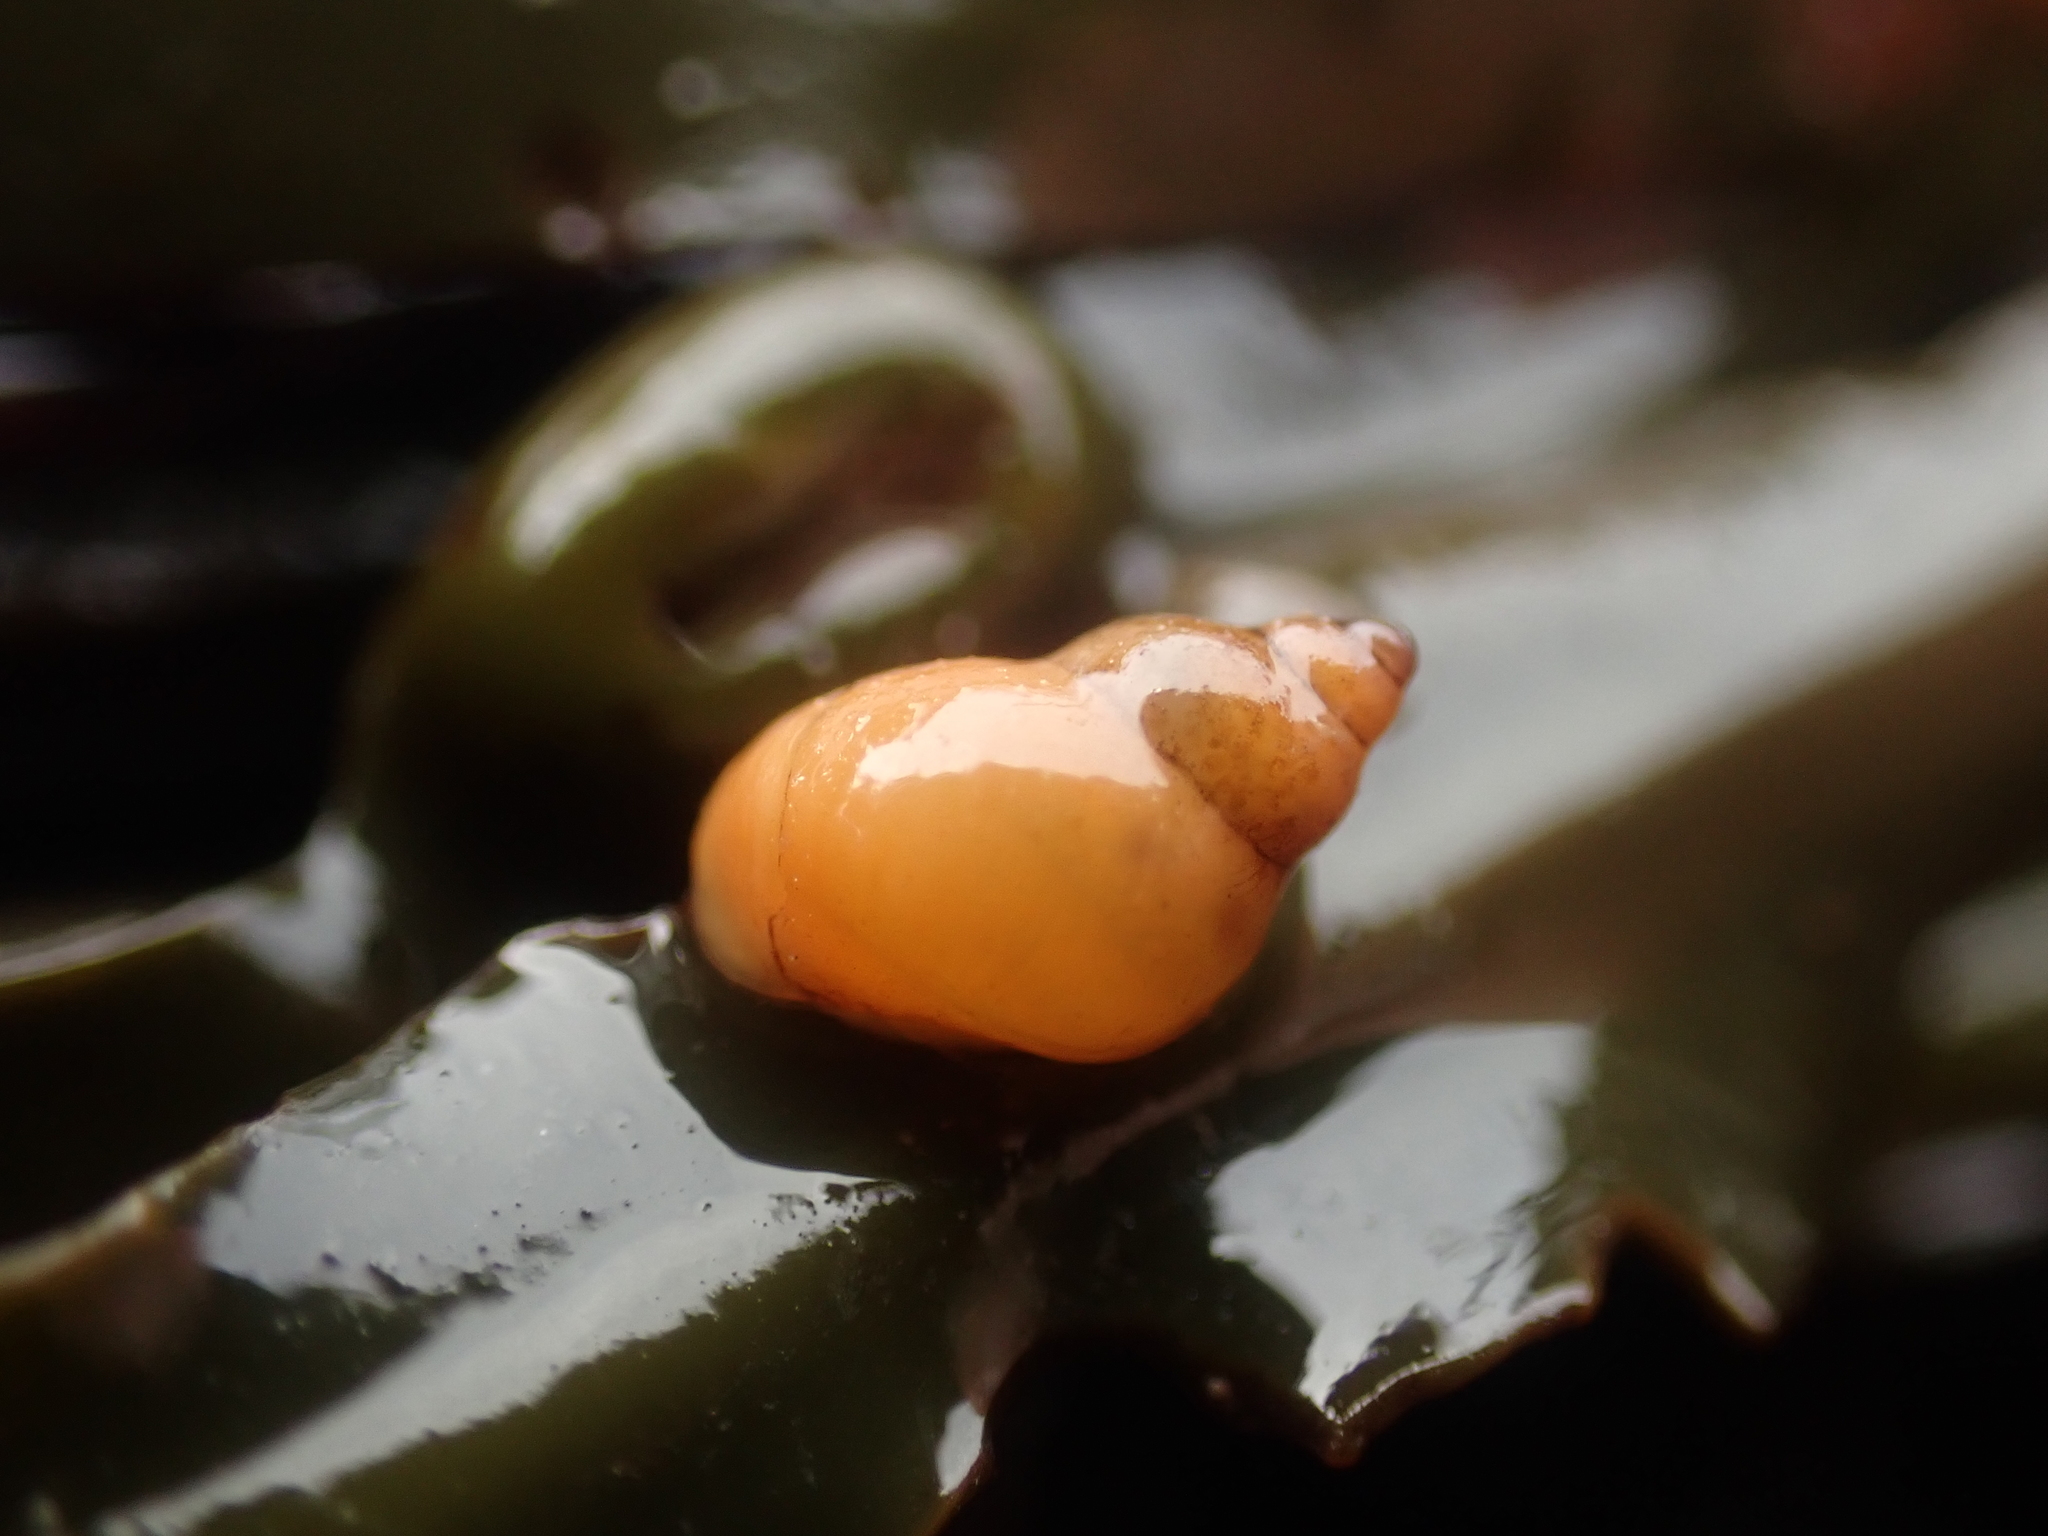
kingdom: Animalia
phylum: Mollusca
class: Gastropoda
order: Littorinimorpha
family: Littorinidae
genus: Lacuna
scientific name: Lacuna vincta
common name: Banded chink shell
